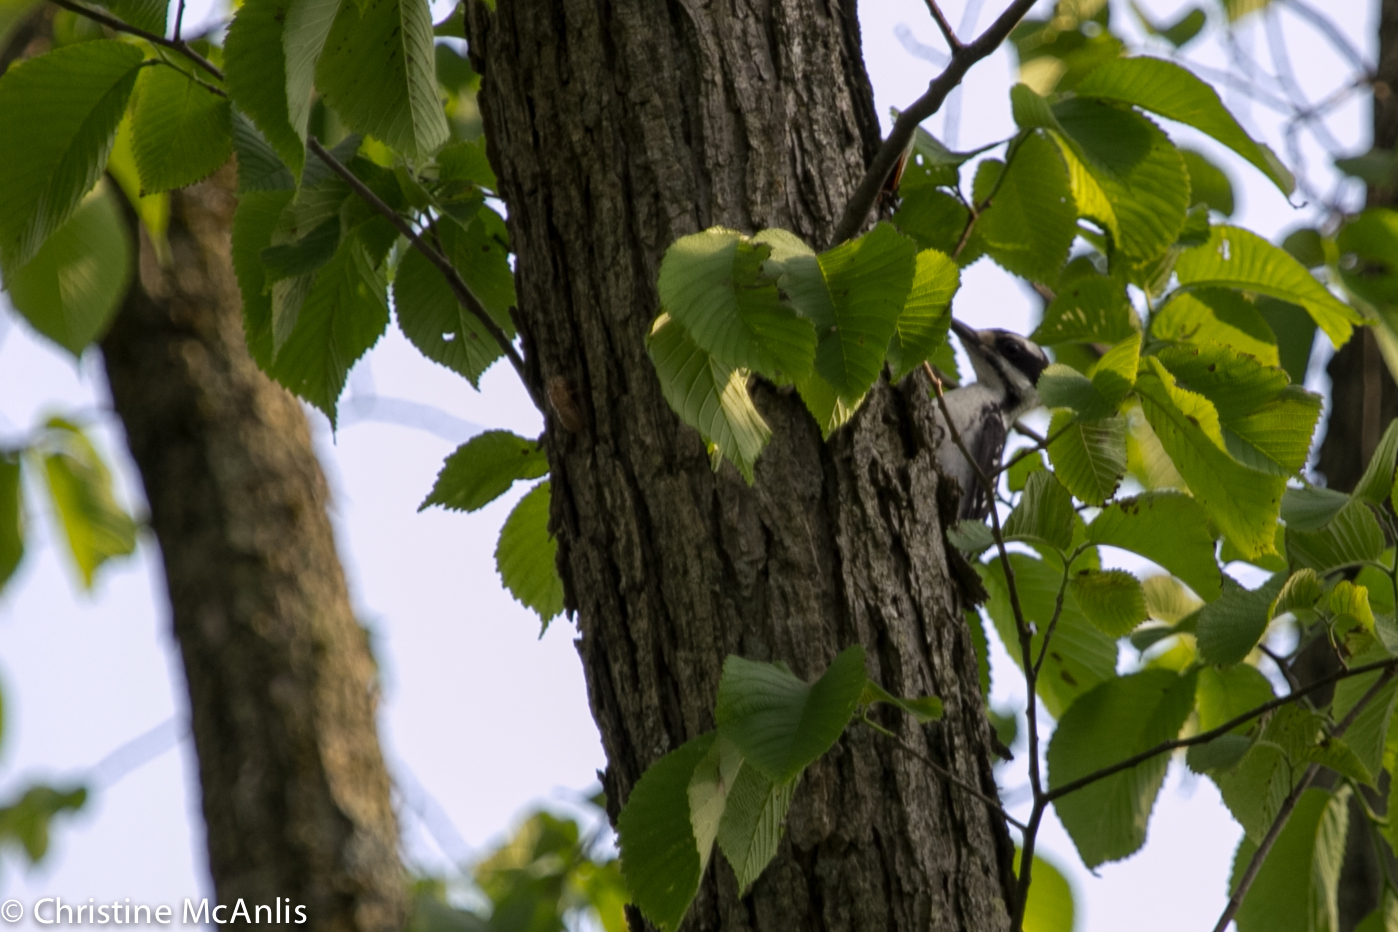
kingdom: Animalia
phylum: Chordata
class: Aves
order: Piciformes
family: Picidae
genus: Leuconotopicus
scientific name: Leuconotopicus villosus
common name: Hairy woodpecker
